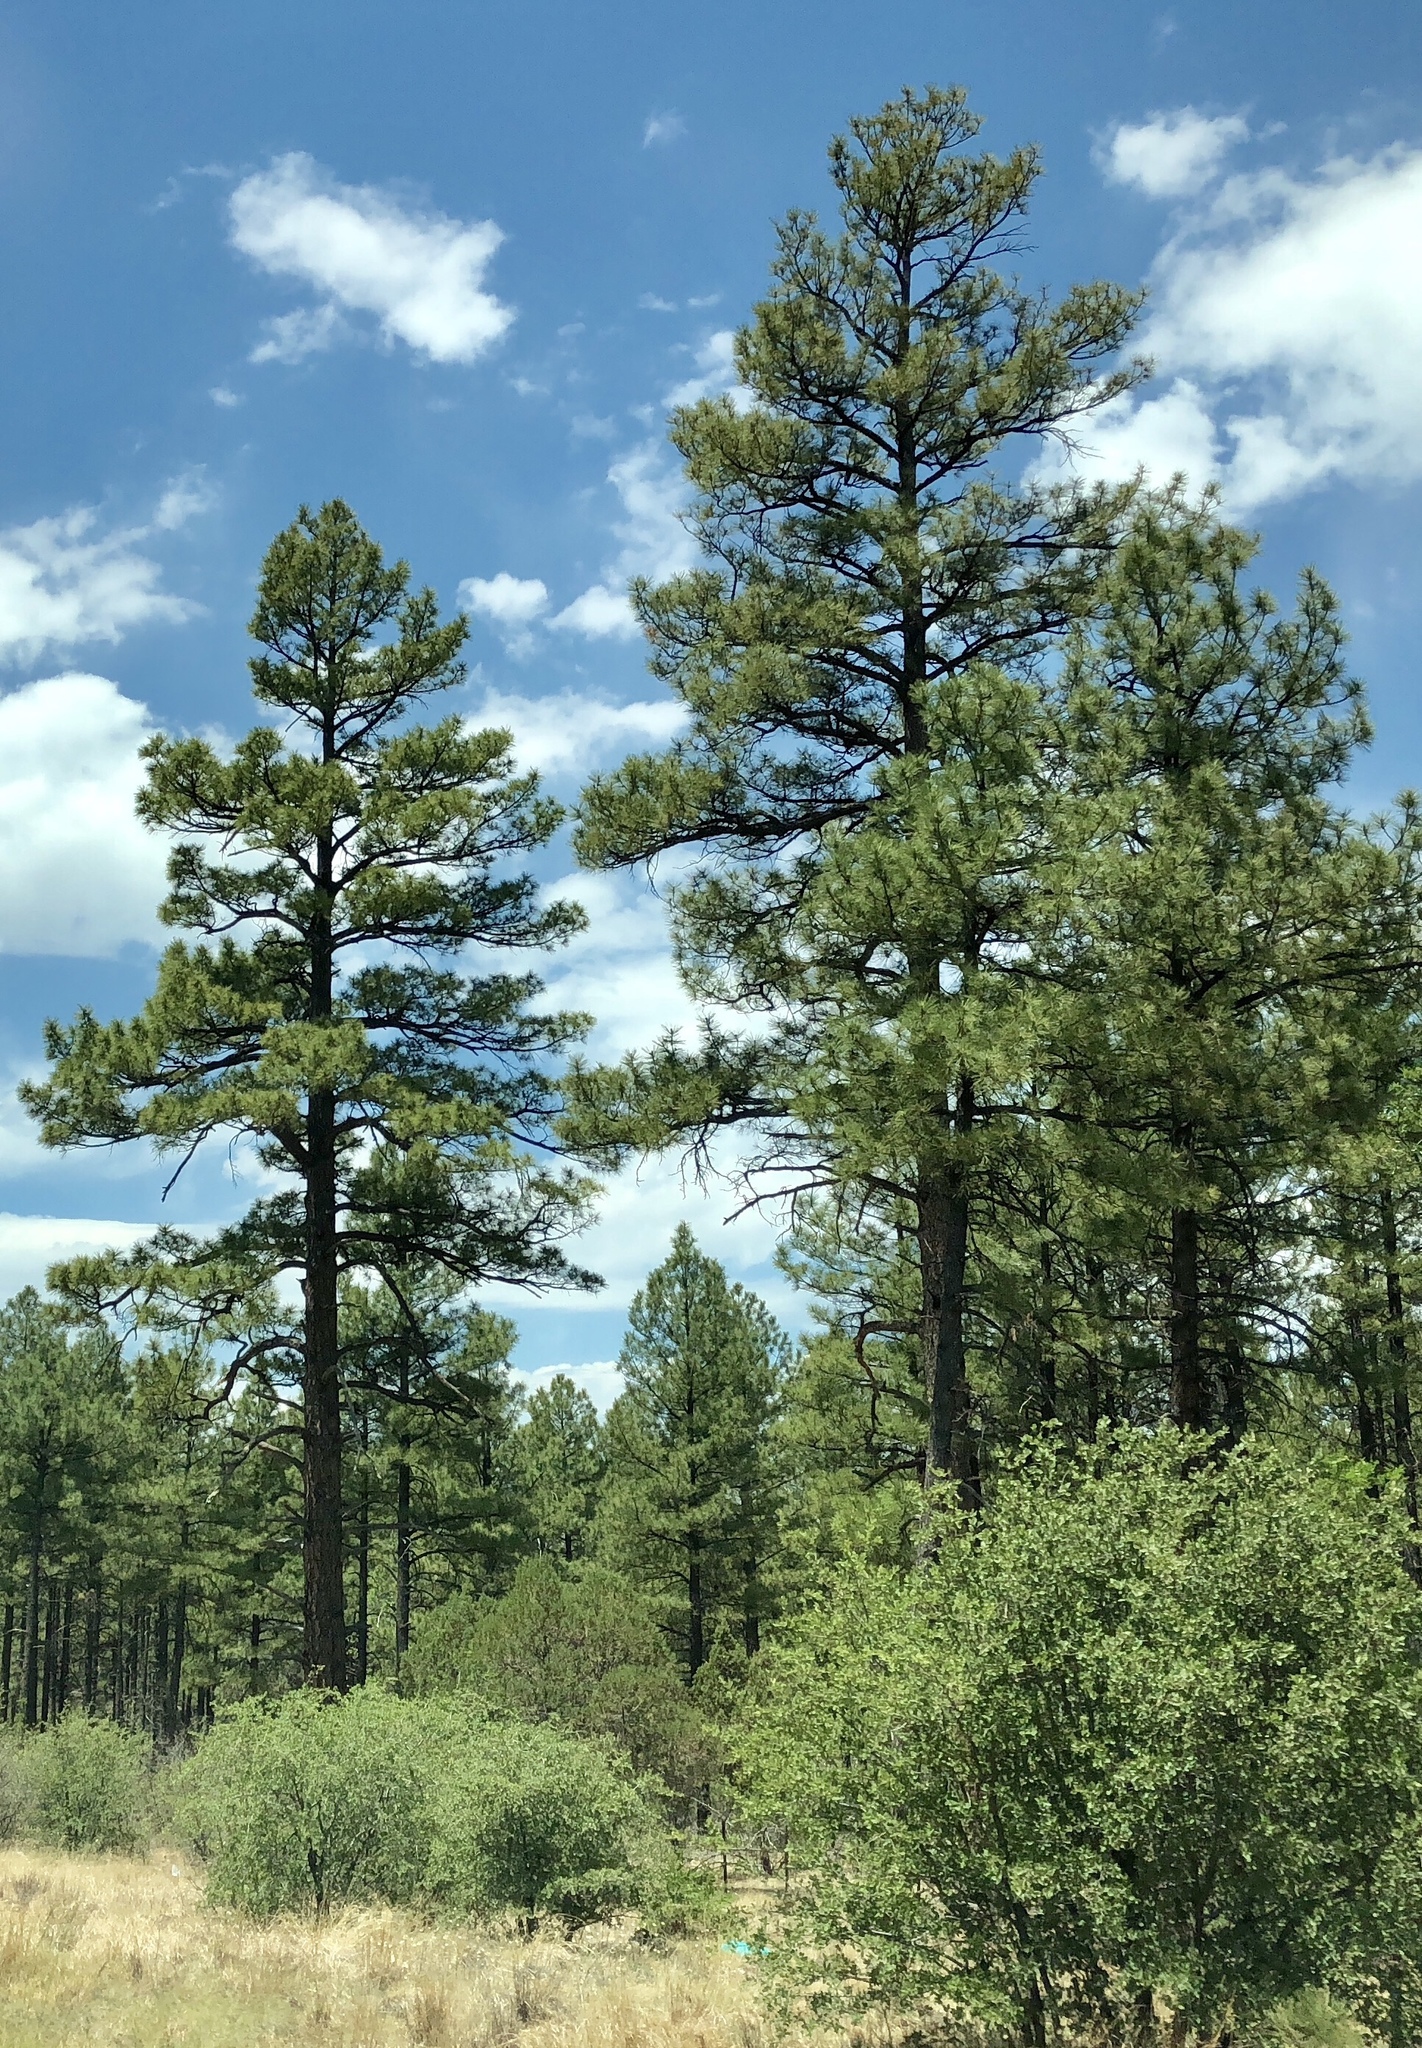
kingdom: Plantae
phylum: Tracheophyta
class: Pinopsida
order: Pinales
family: Pinaceae
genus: Pinus
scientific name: Pinus ponderosa
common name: Western yellow-pine
